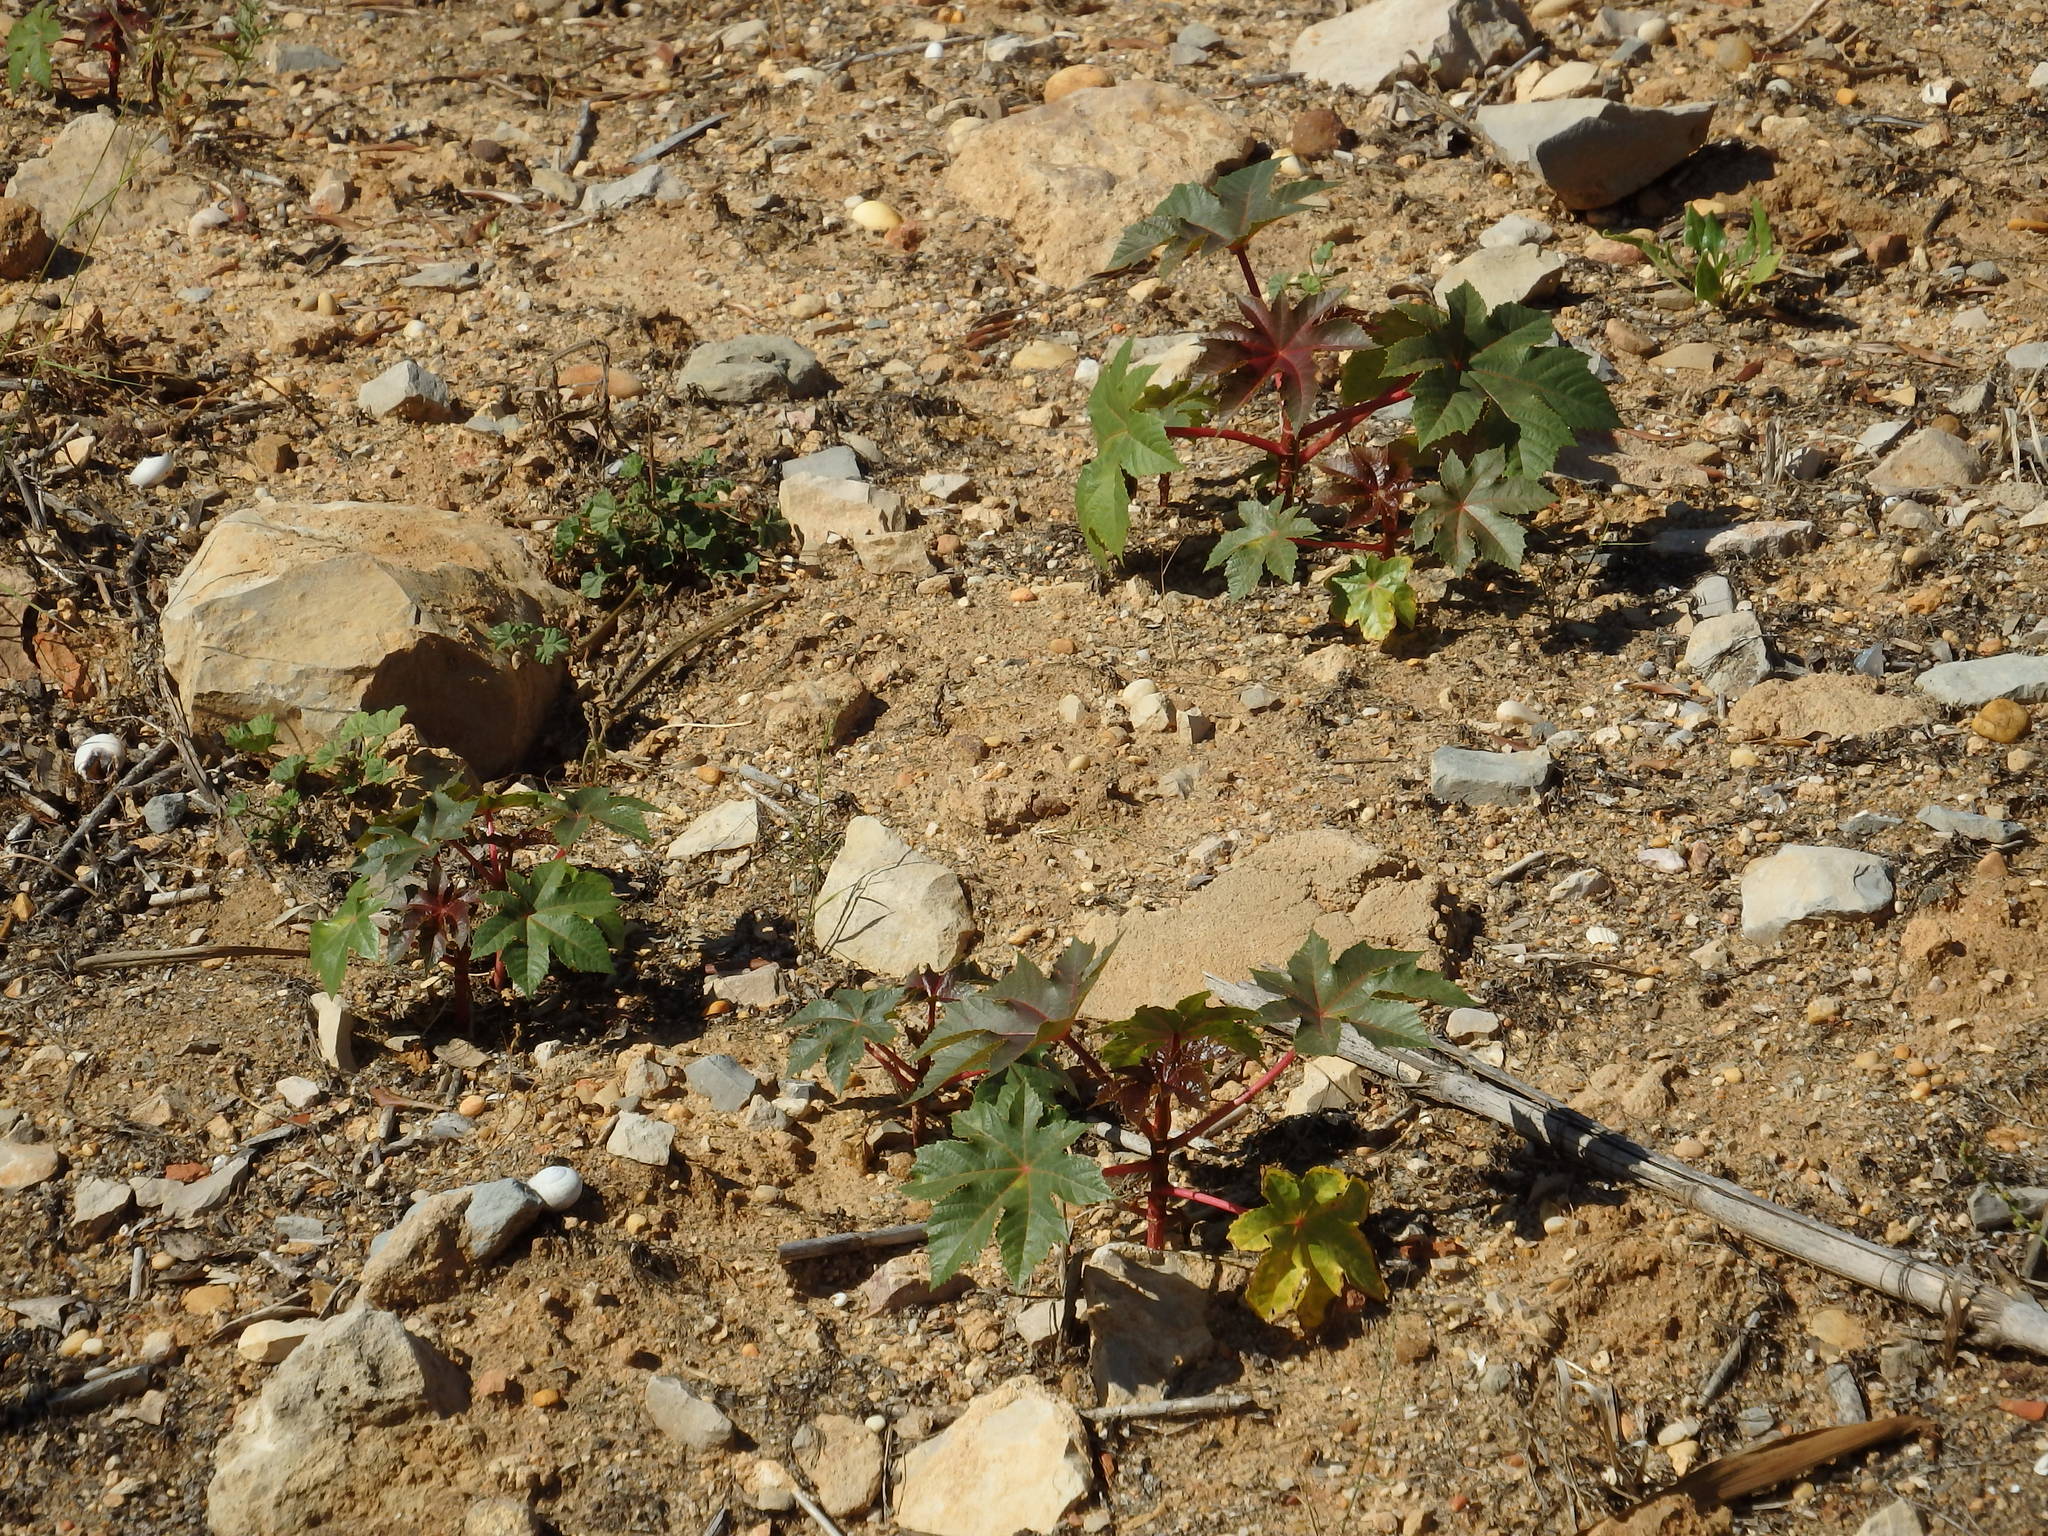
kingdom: Plantae
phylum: Tracheophyta
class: Magnoliopsida
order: Malpighiales
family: Euphorbiaceae
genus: Ricinus
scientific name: Ricinus communis
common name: Castor-oil-plant
